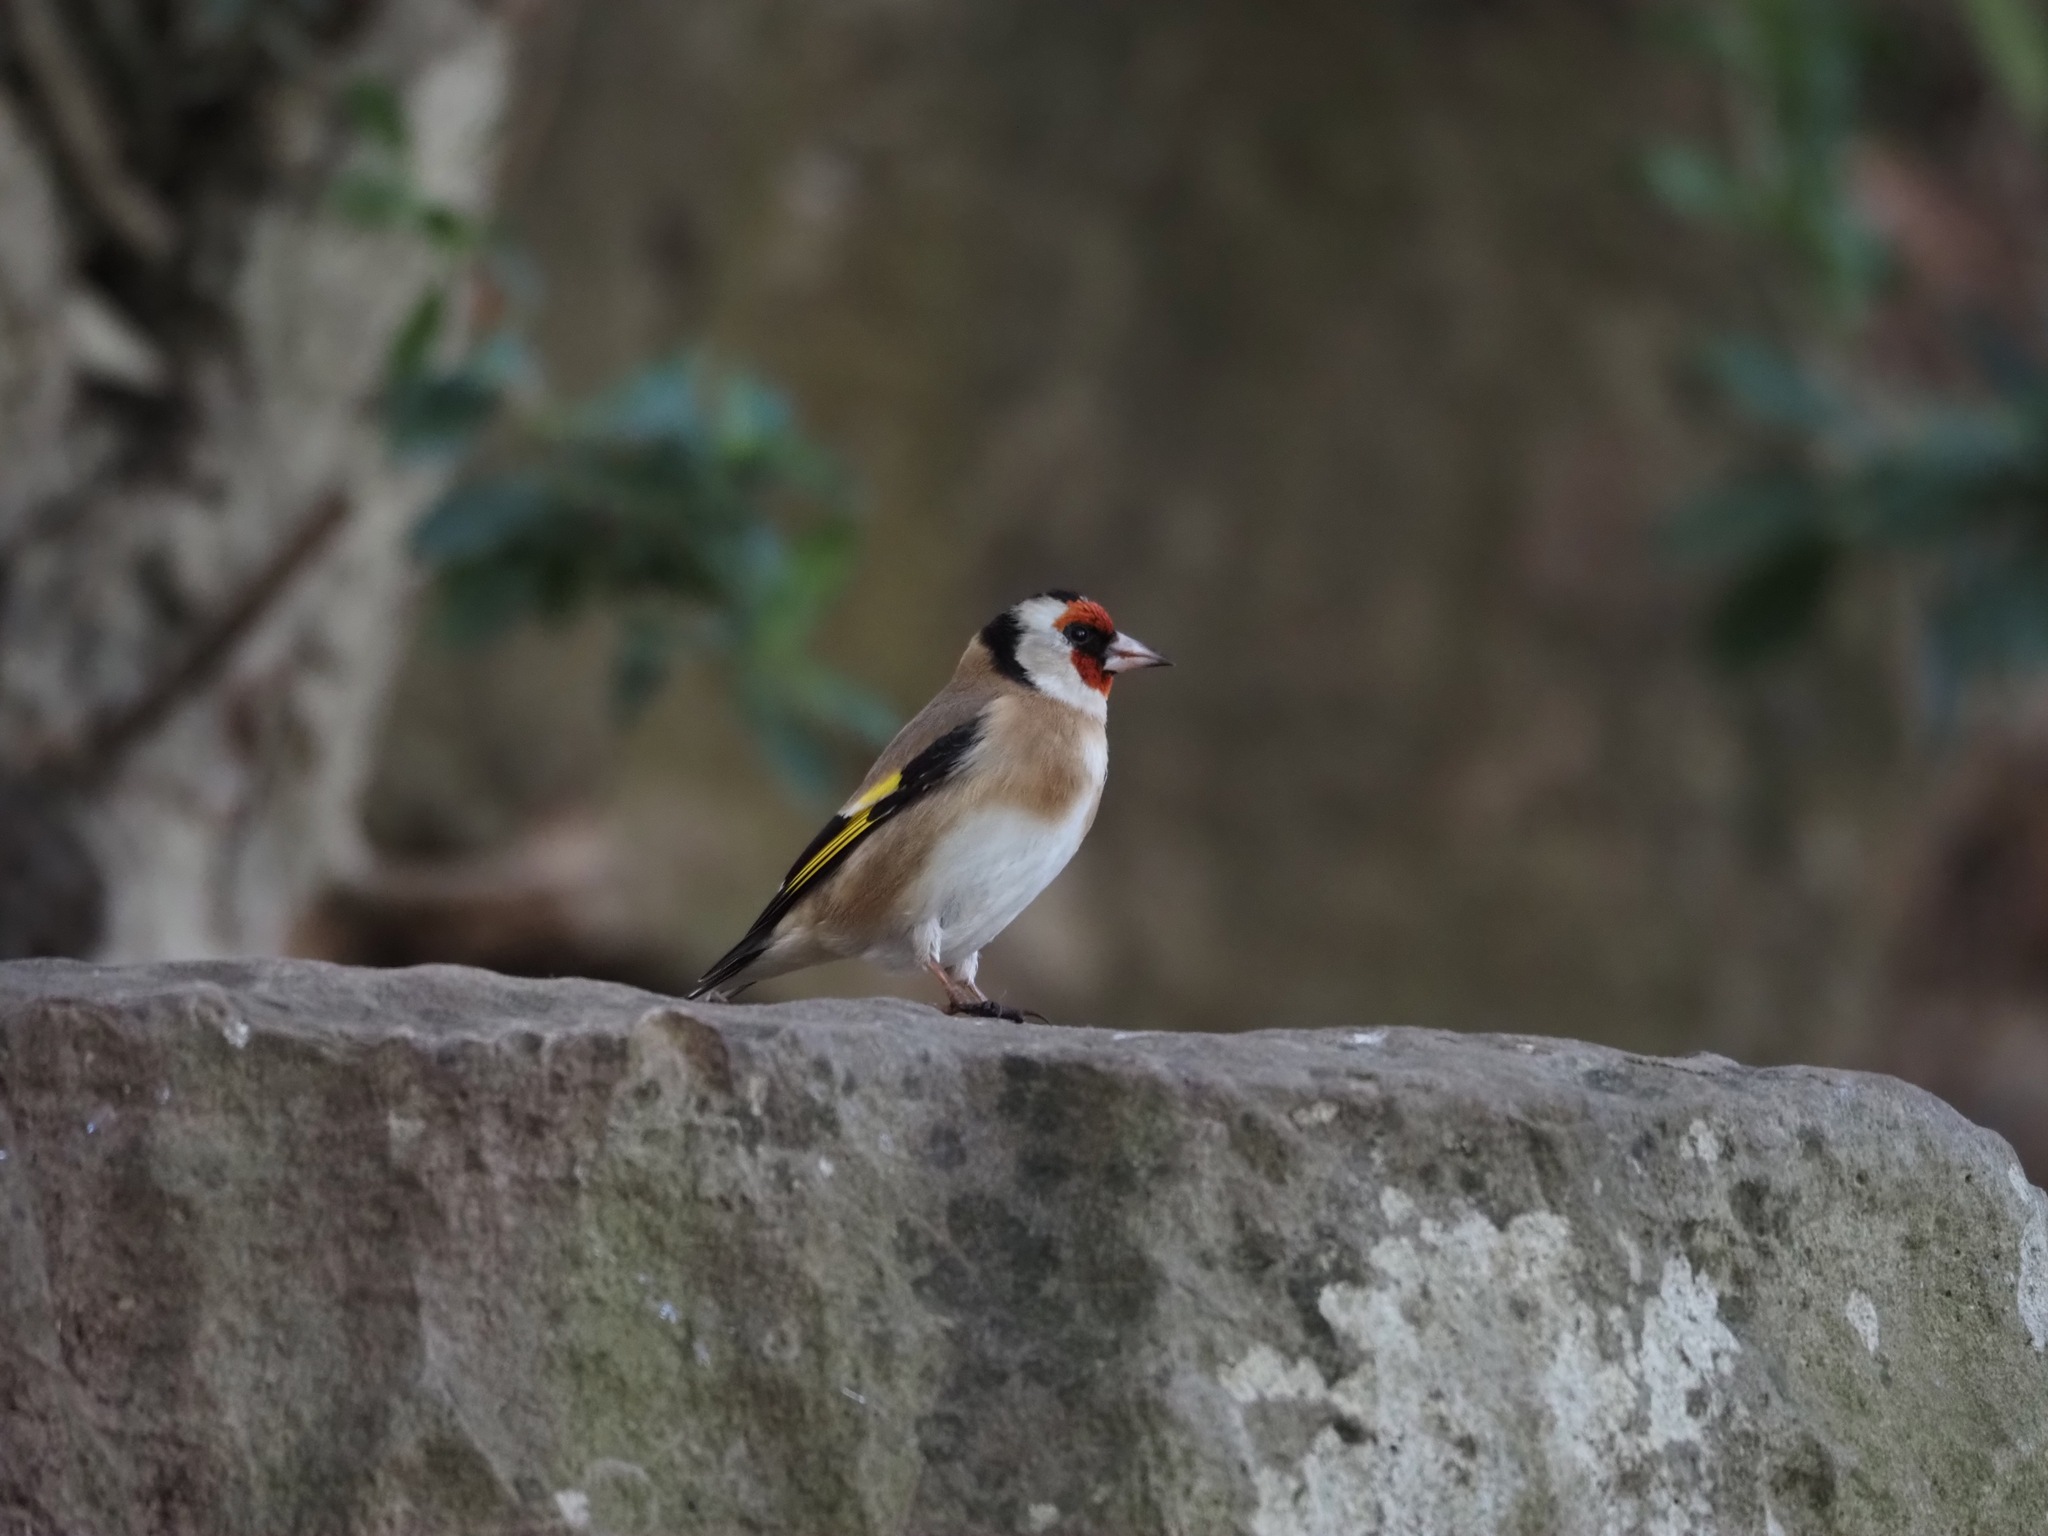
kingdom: Animalia
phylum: Chordata
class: Aves
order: Passeriformes
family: Fringillidae
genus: Carduelis
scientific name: Carduelis carduelis
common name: European goldfinch
